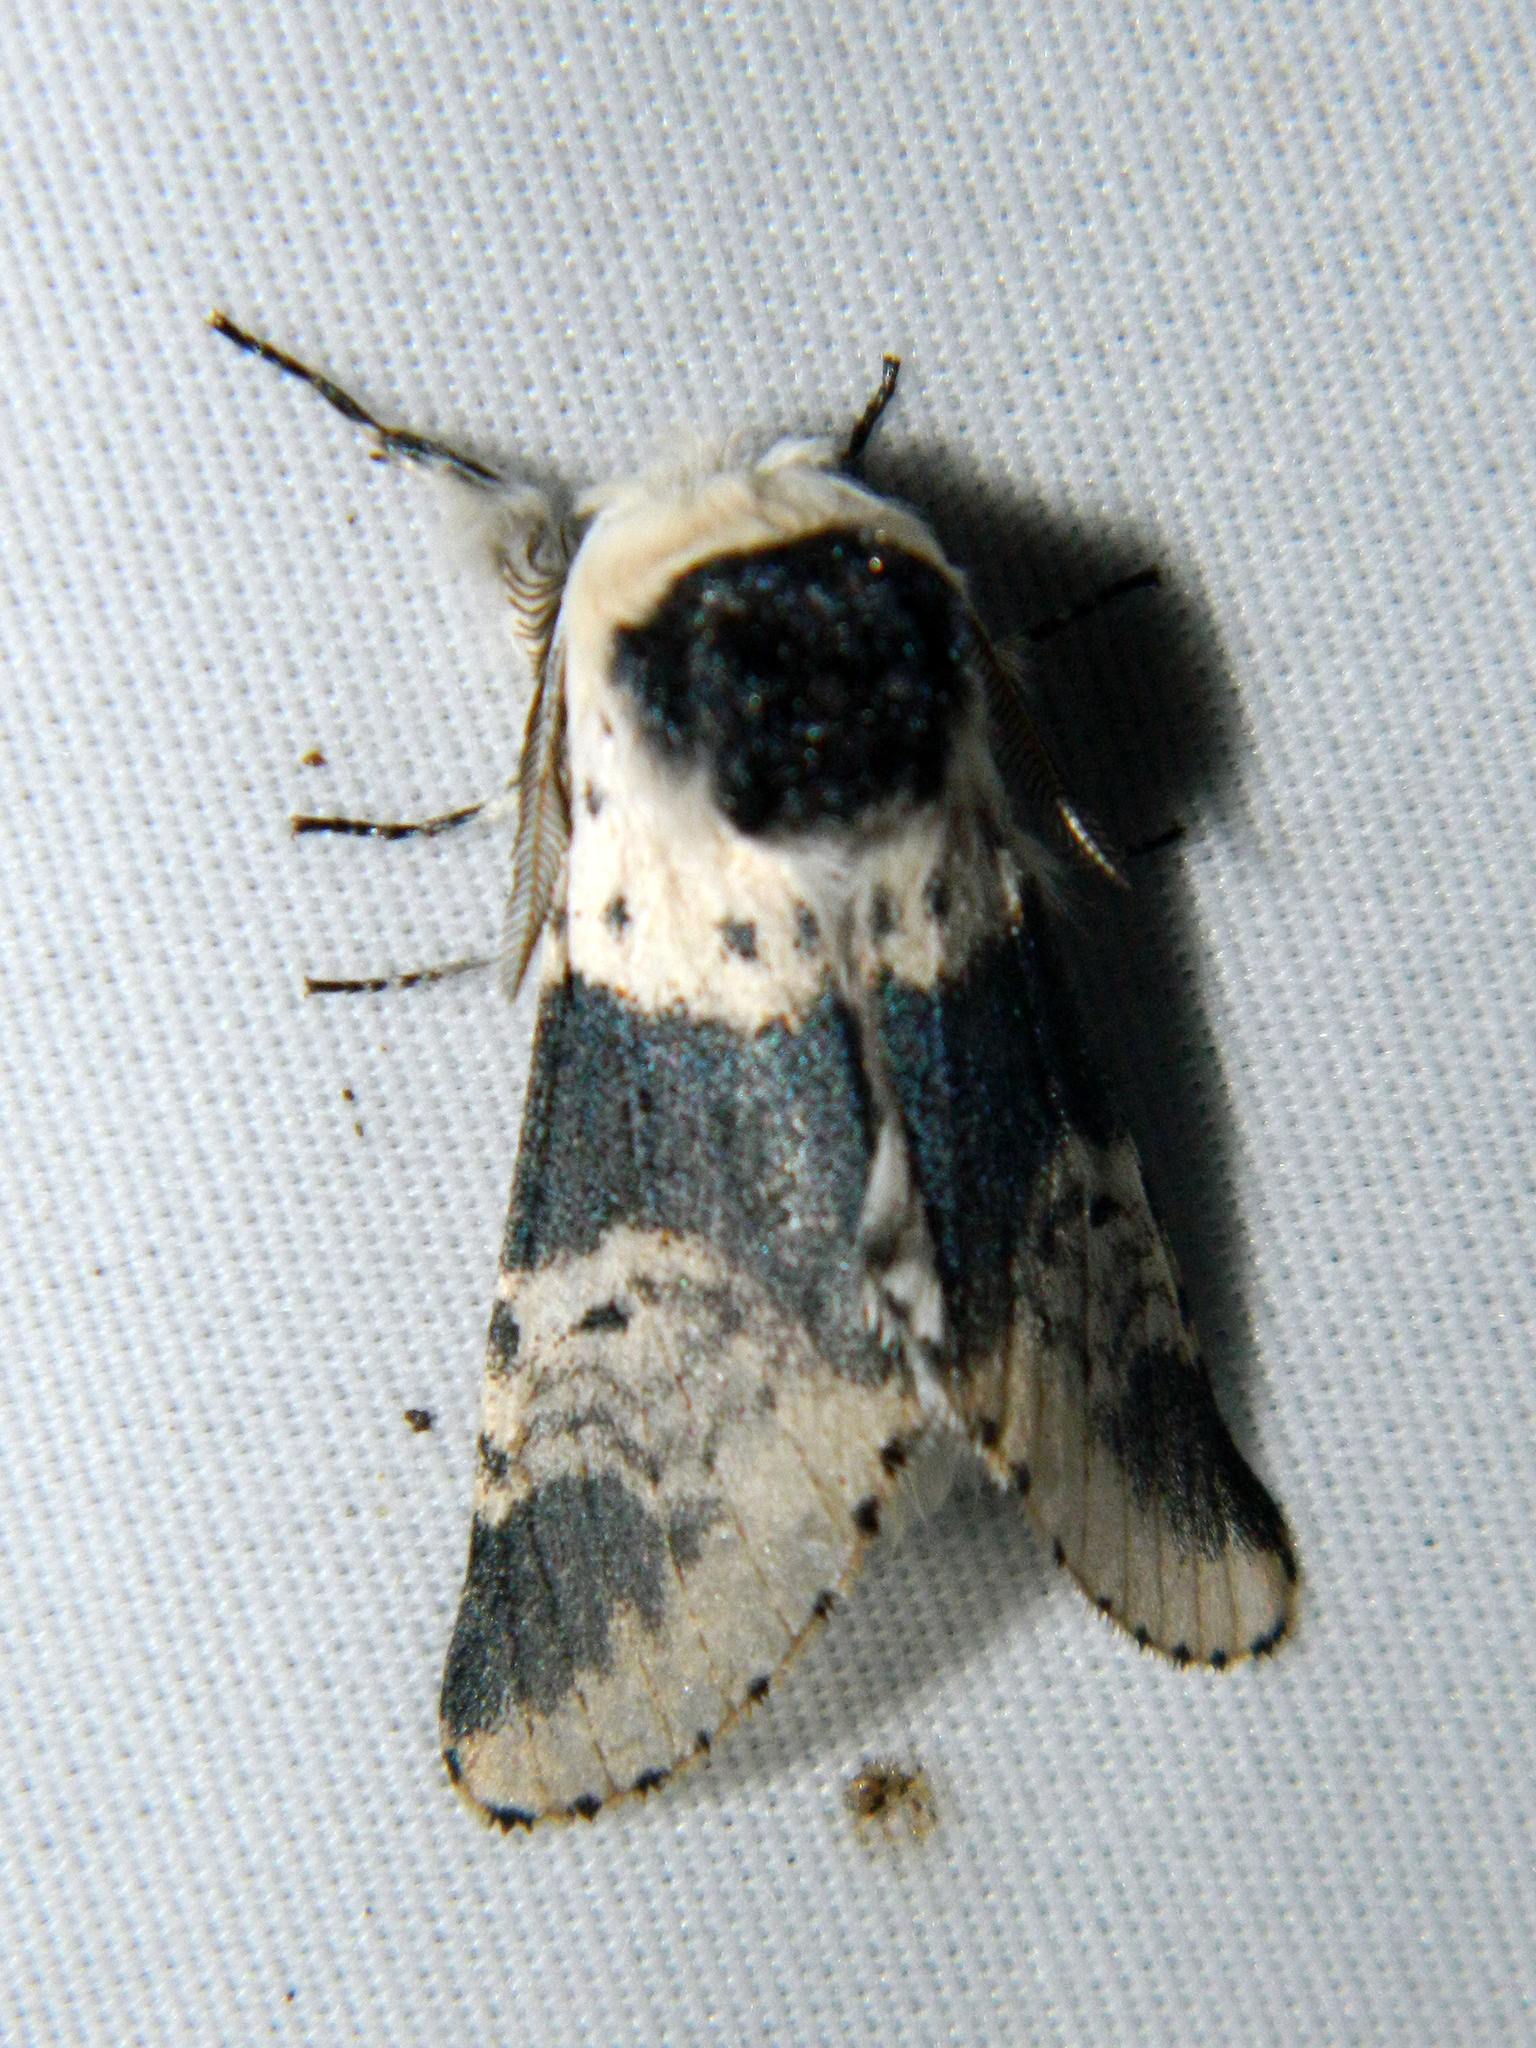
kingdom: Animalia
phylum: Arthropoda
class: Insecta
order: Lepidoptera
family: Notodontidae
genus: Furcula
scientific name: Furcula modesta
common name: Modest furcula moth
